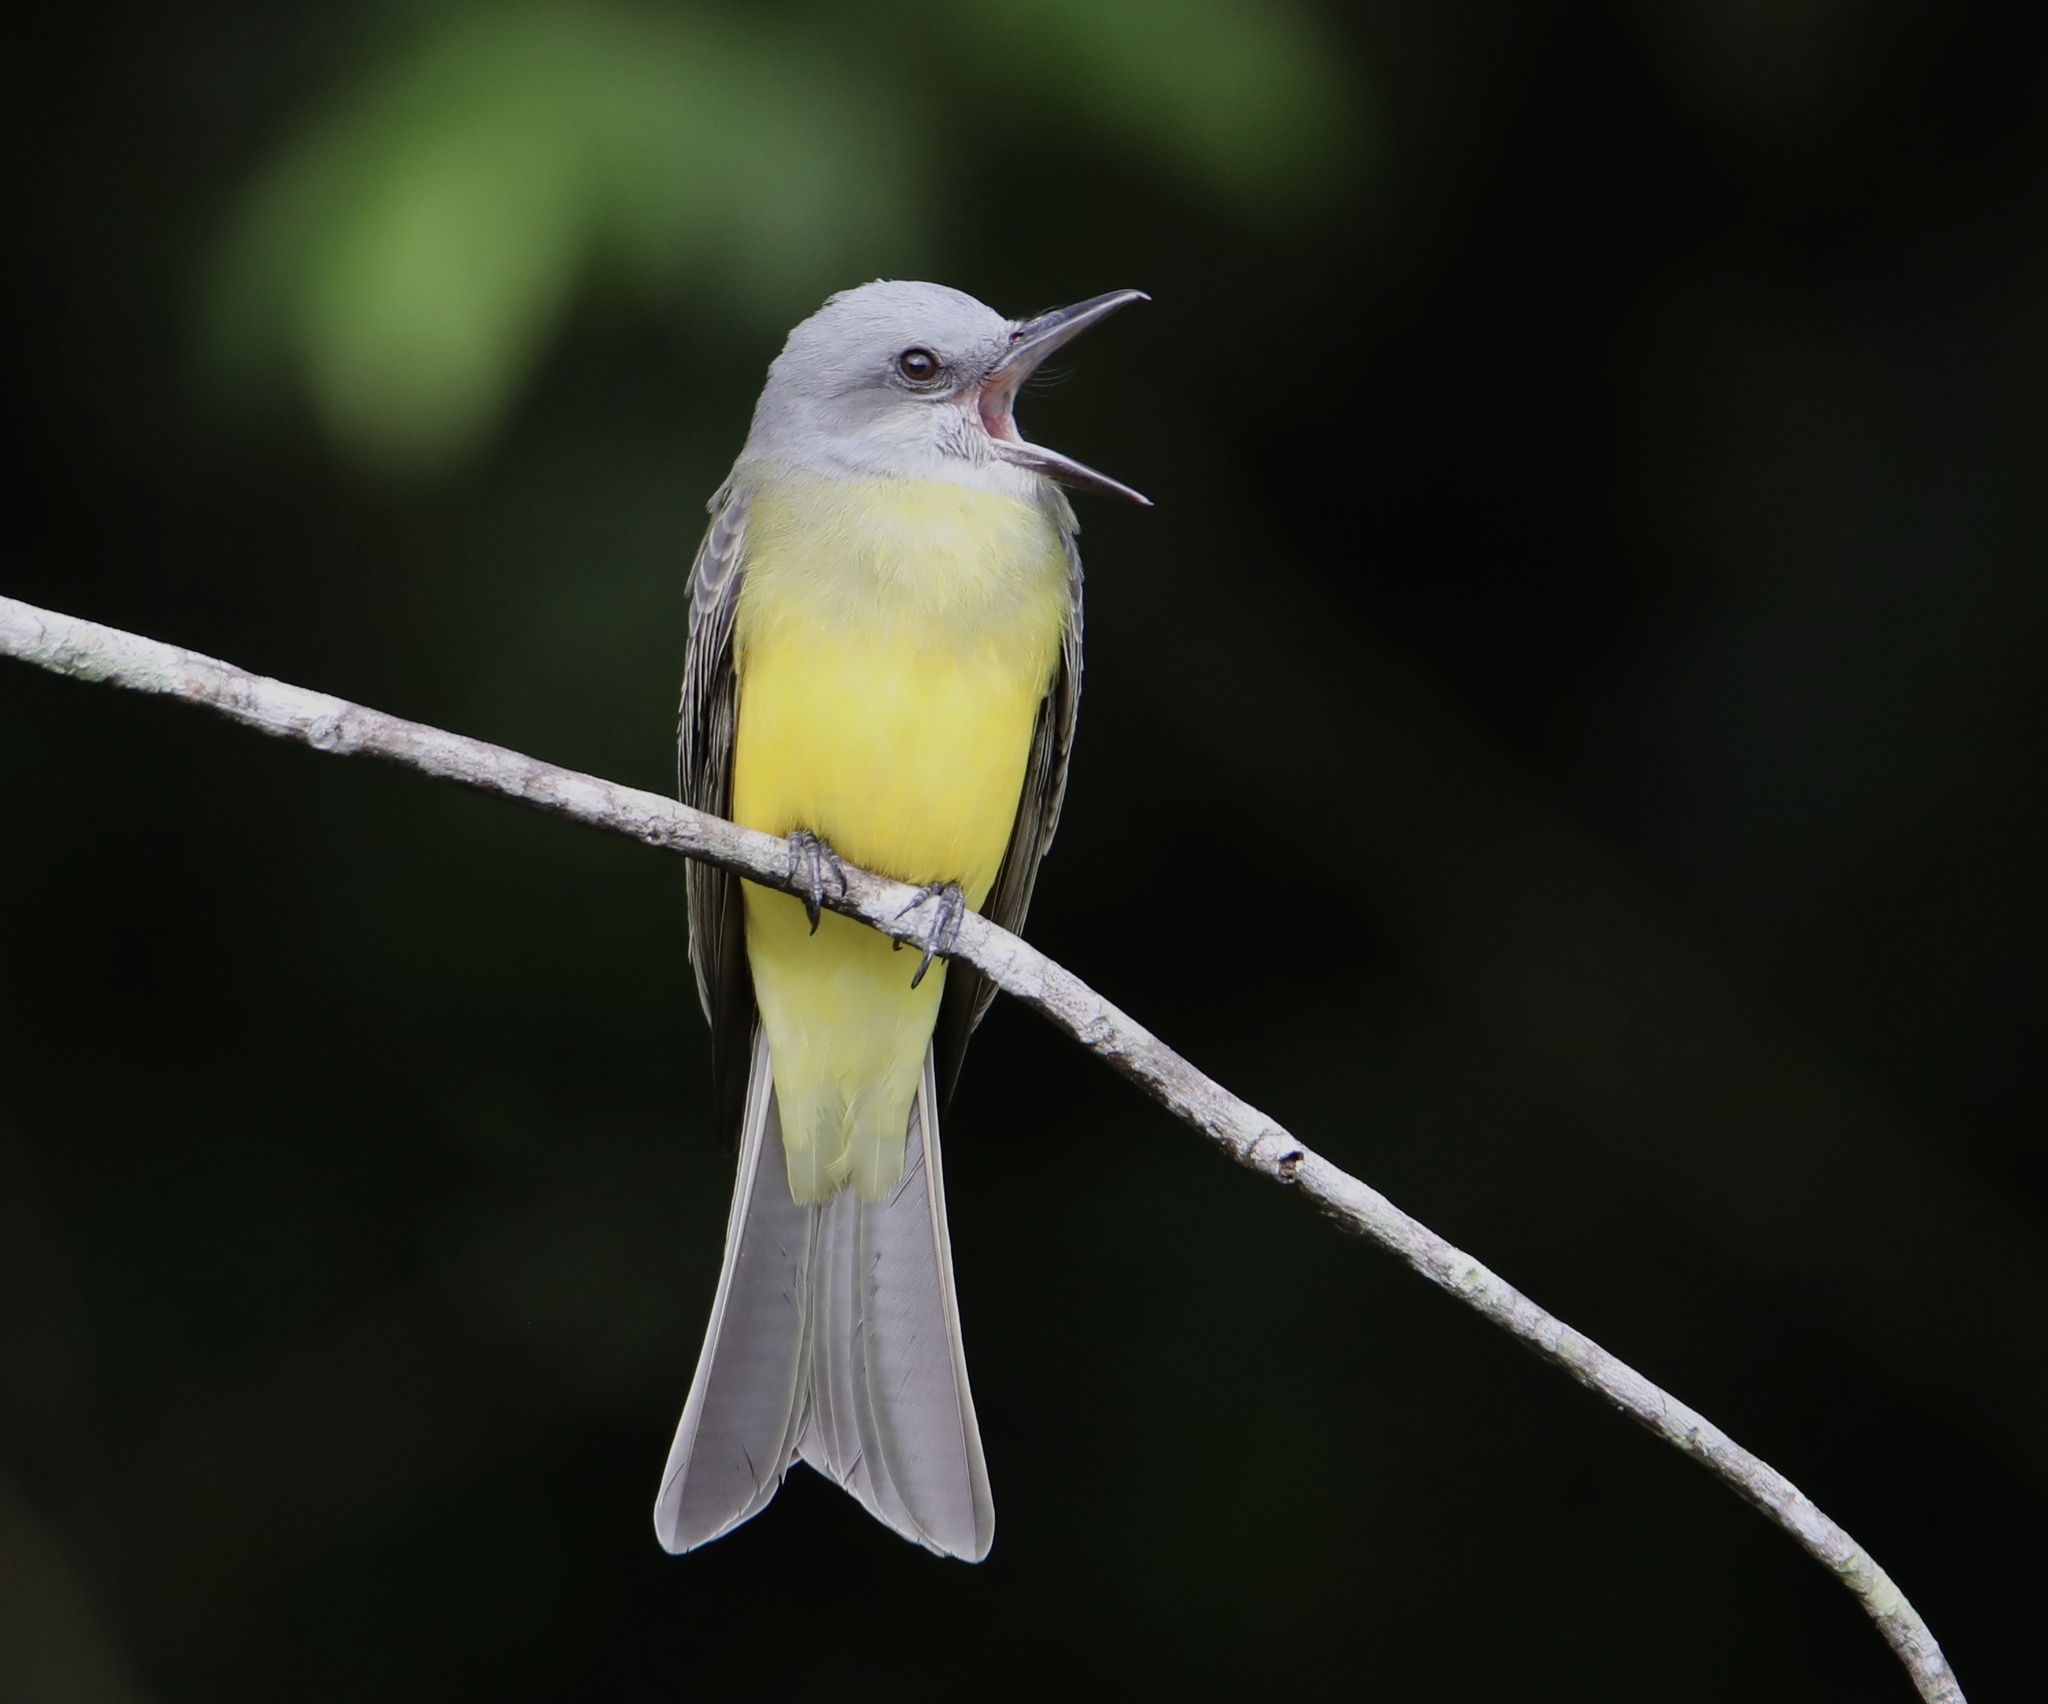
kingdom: Animalia
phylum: Chordata
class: Aves
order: Passeriformes
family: Tyrannidae
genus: Tyrannus
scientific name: Tyrannus melancholicus
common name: Tropical kingbird
